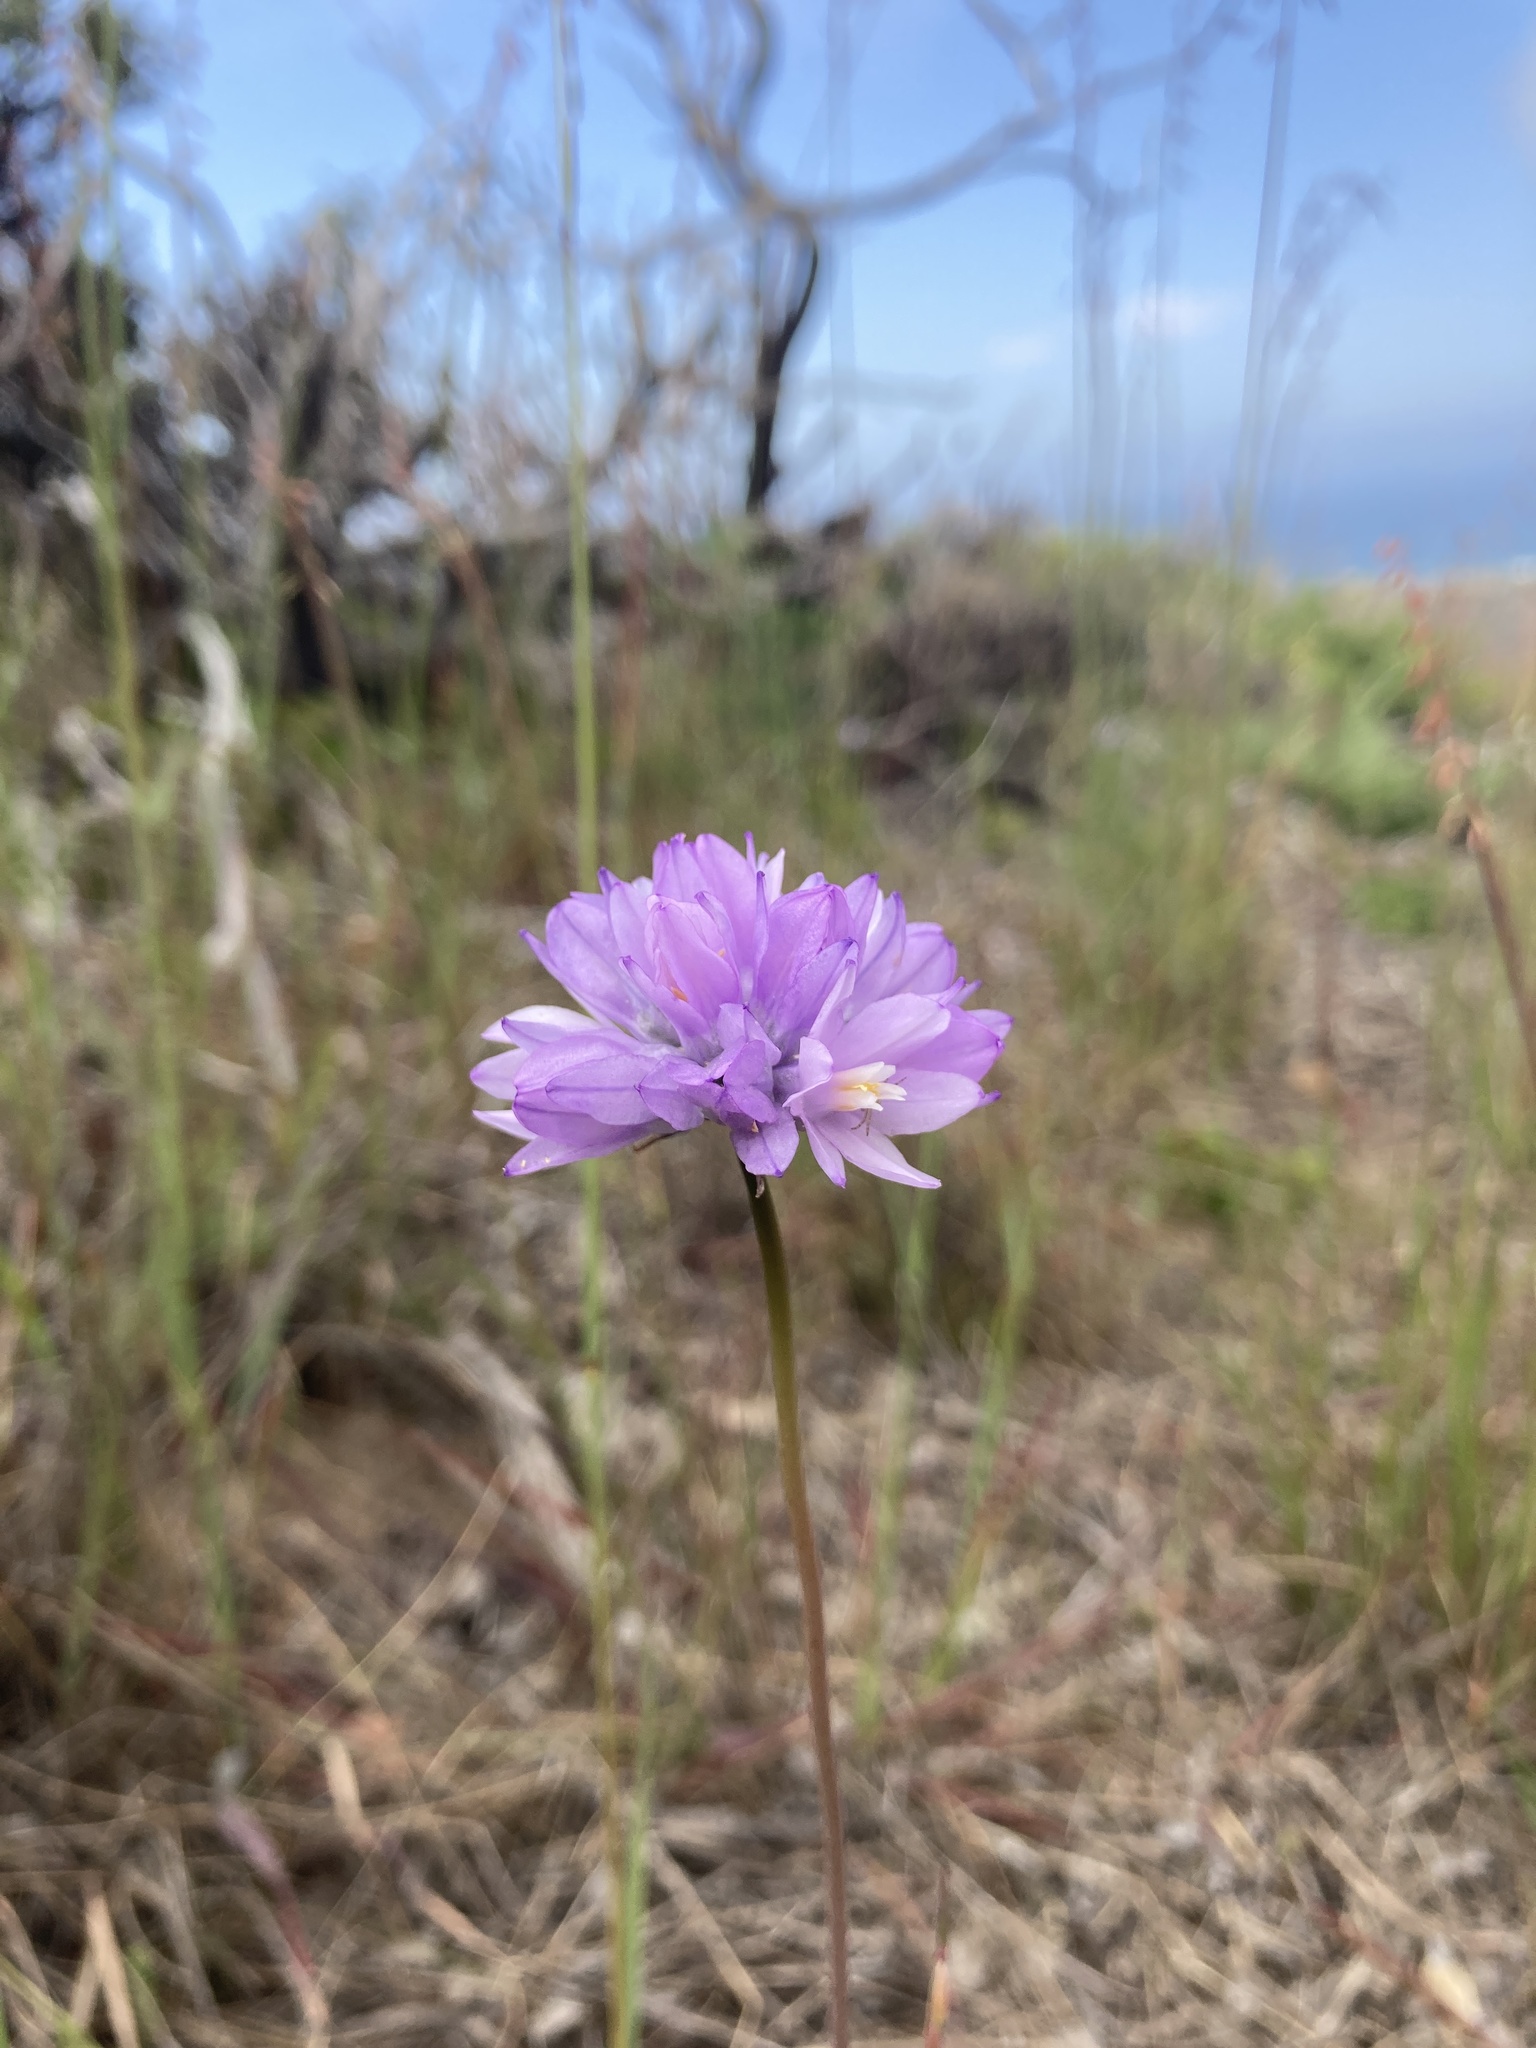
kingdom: Plantae
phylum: Tracheophyta
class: Liliopsida
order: Asparagales
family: Asparagaceae
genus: Dipterostemon
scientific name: Dipterostemon capitatus
